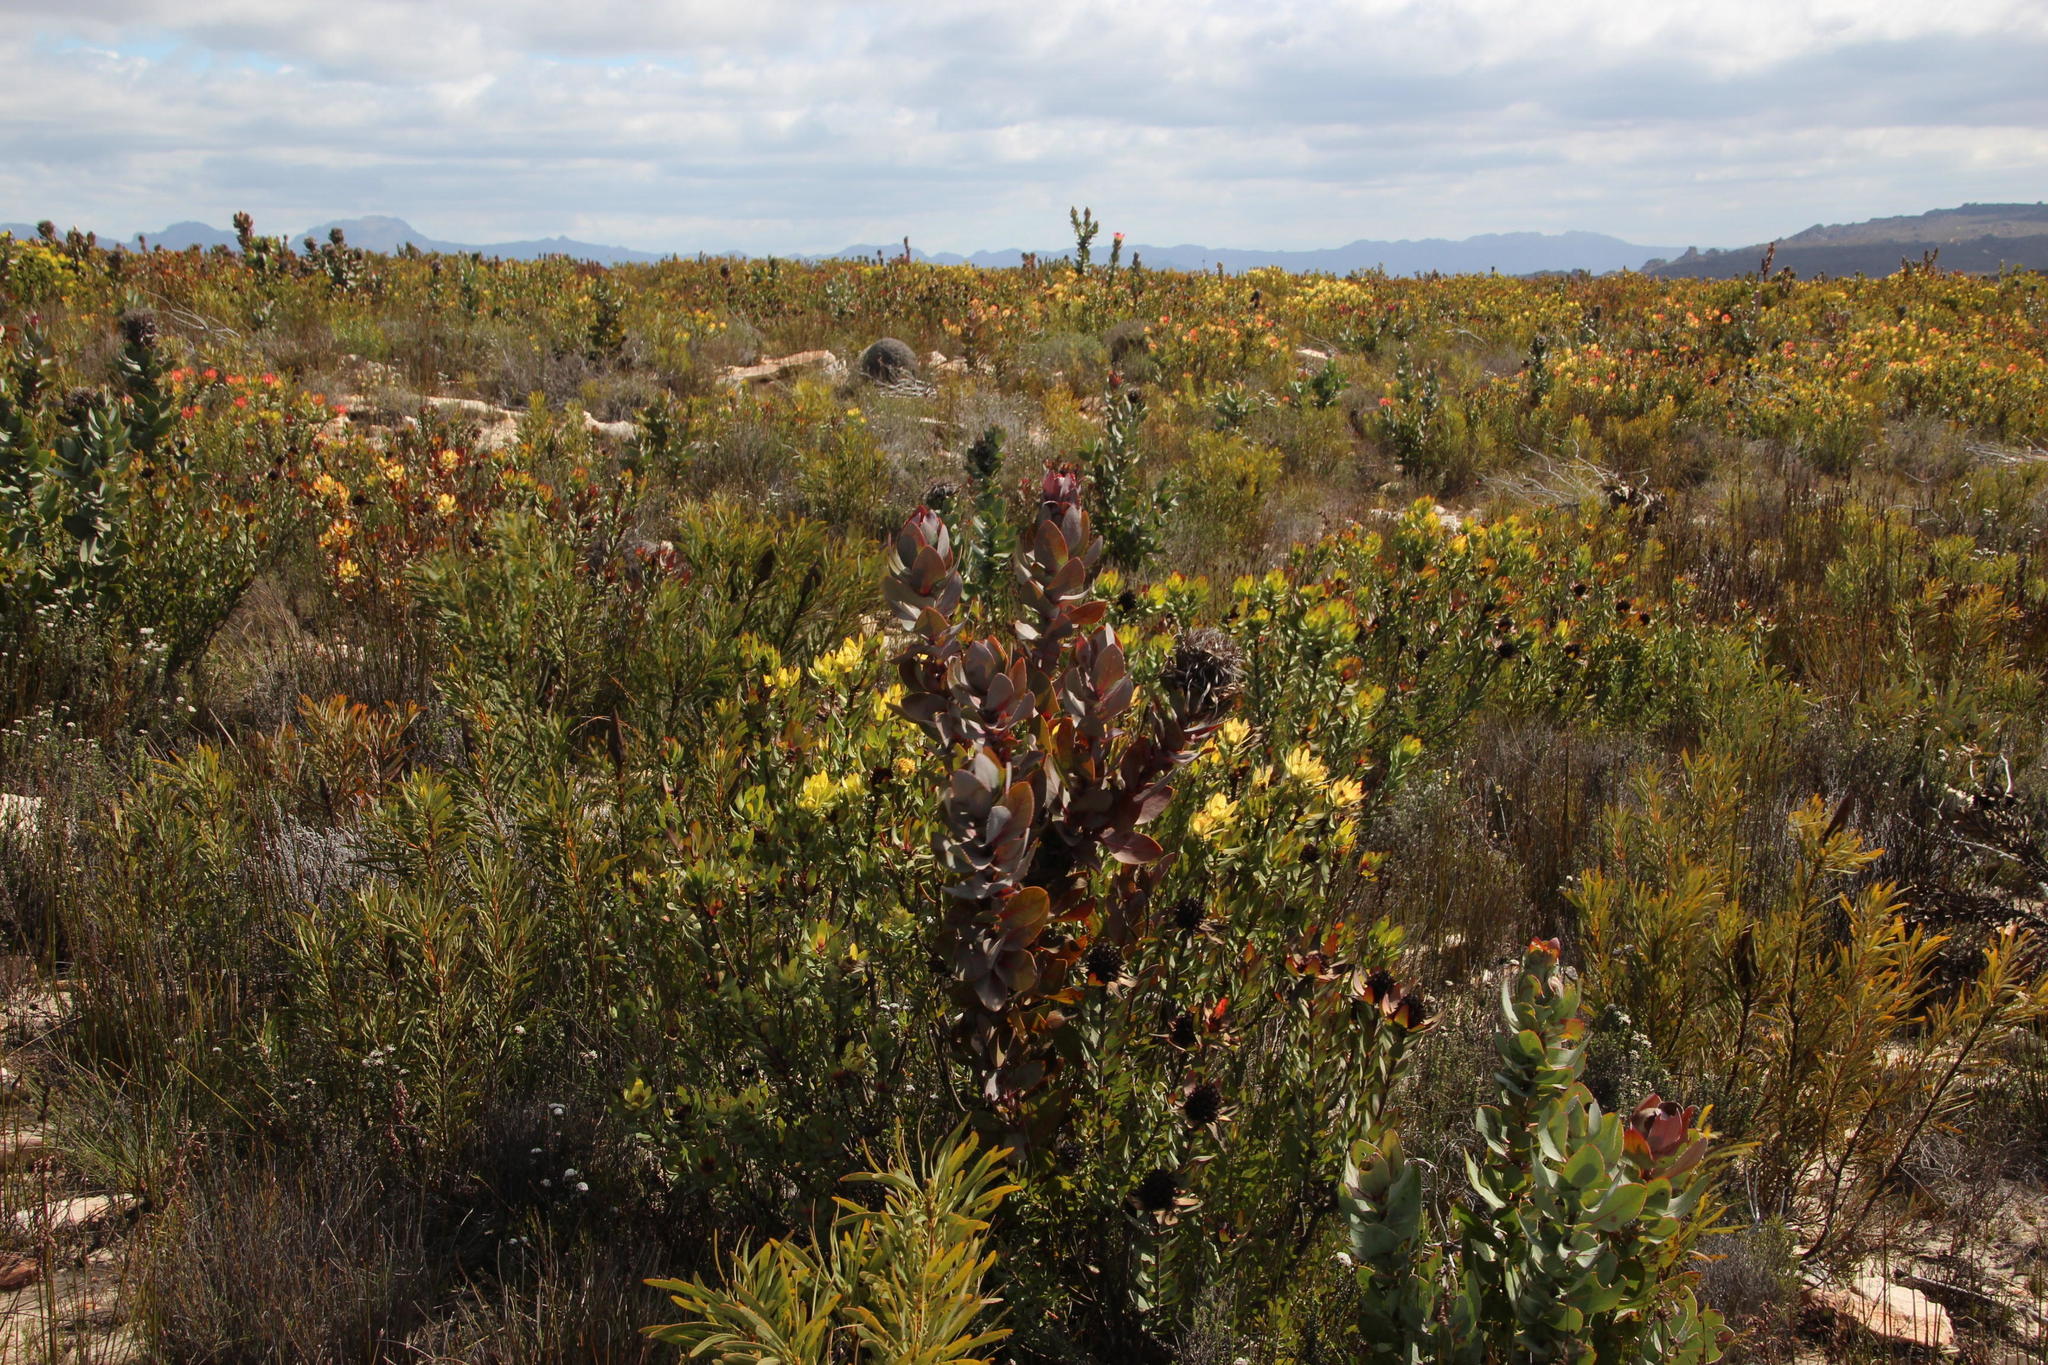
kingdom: Plantae
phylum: Tracheophyta
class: Magnoliopsida
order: Proteales
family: Proteaceae
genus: Protea
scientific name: Protea eximia
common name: Broad-leaved sugarbush
